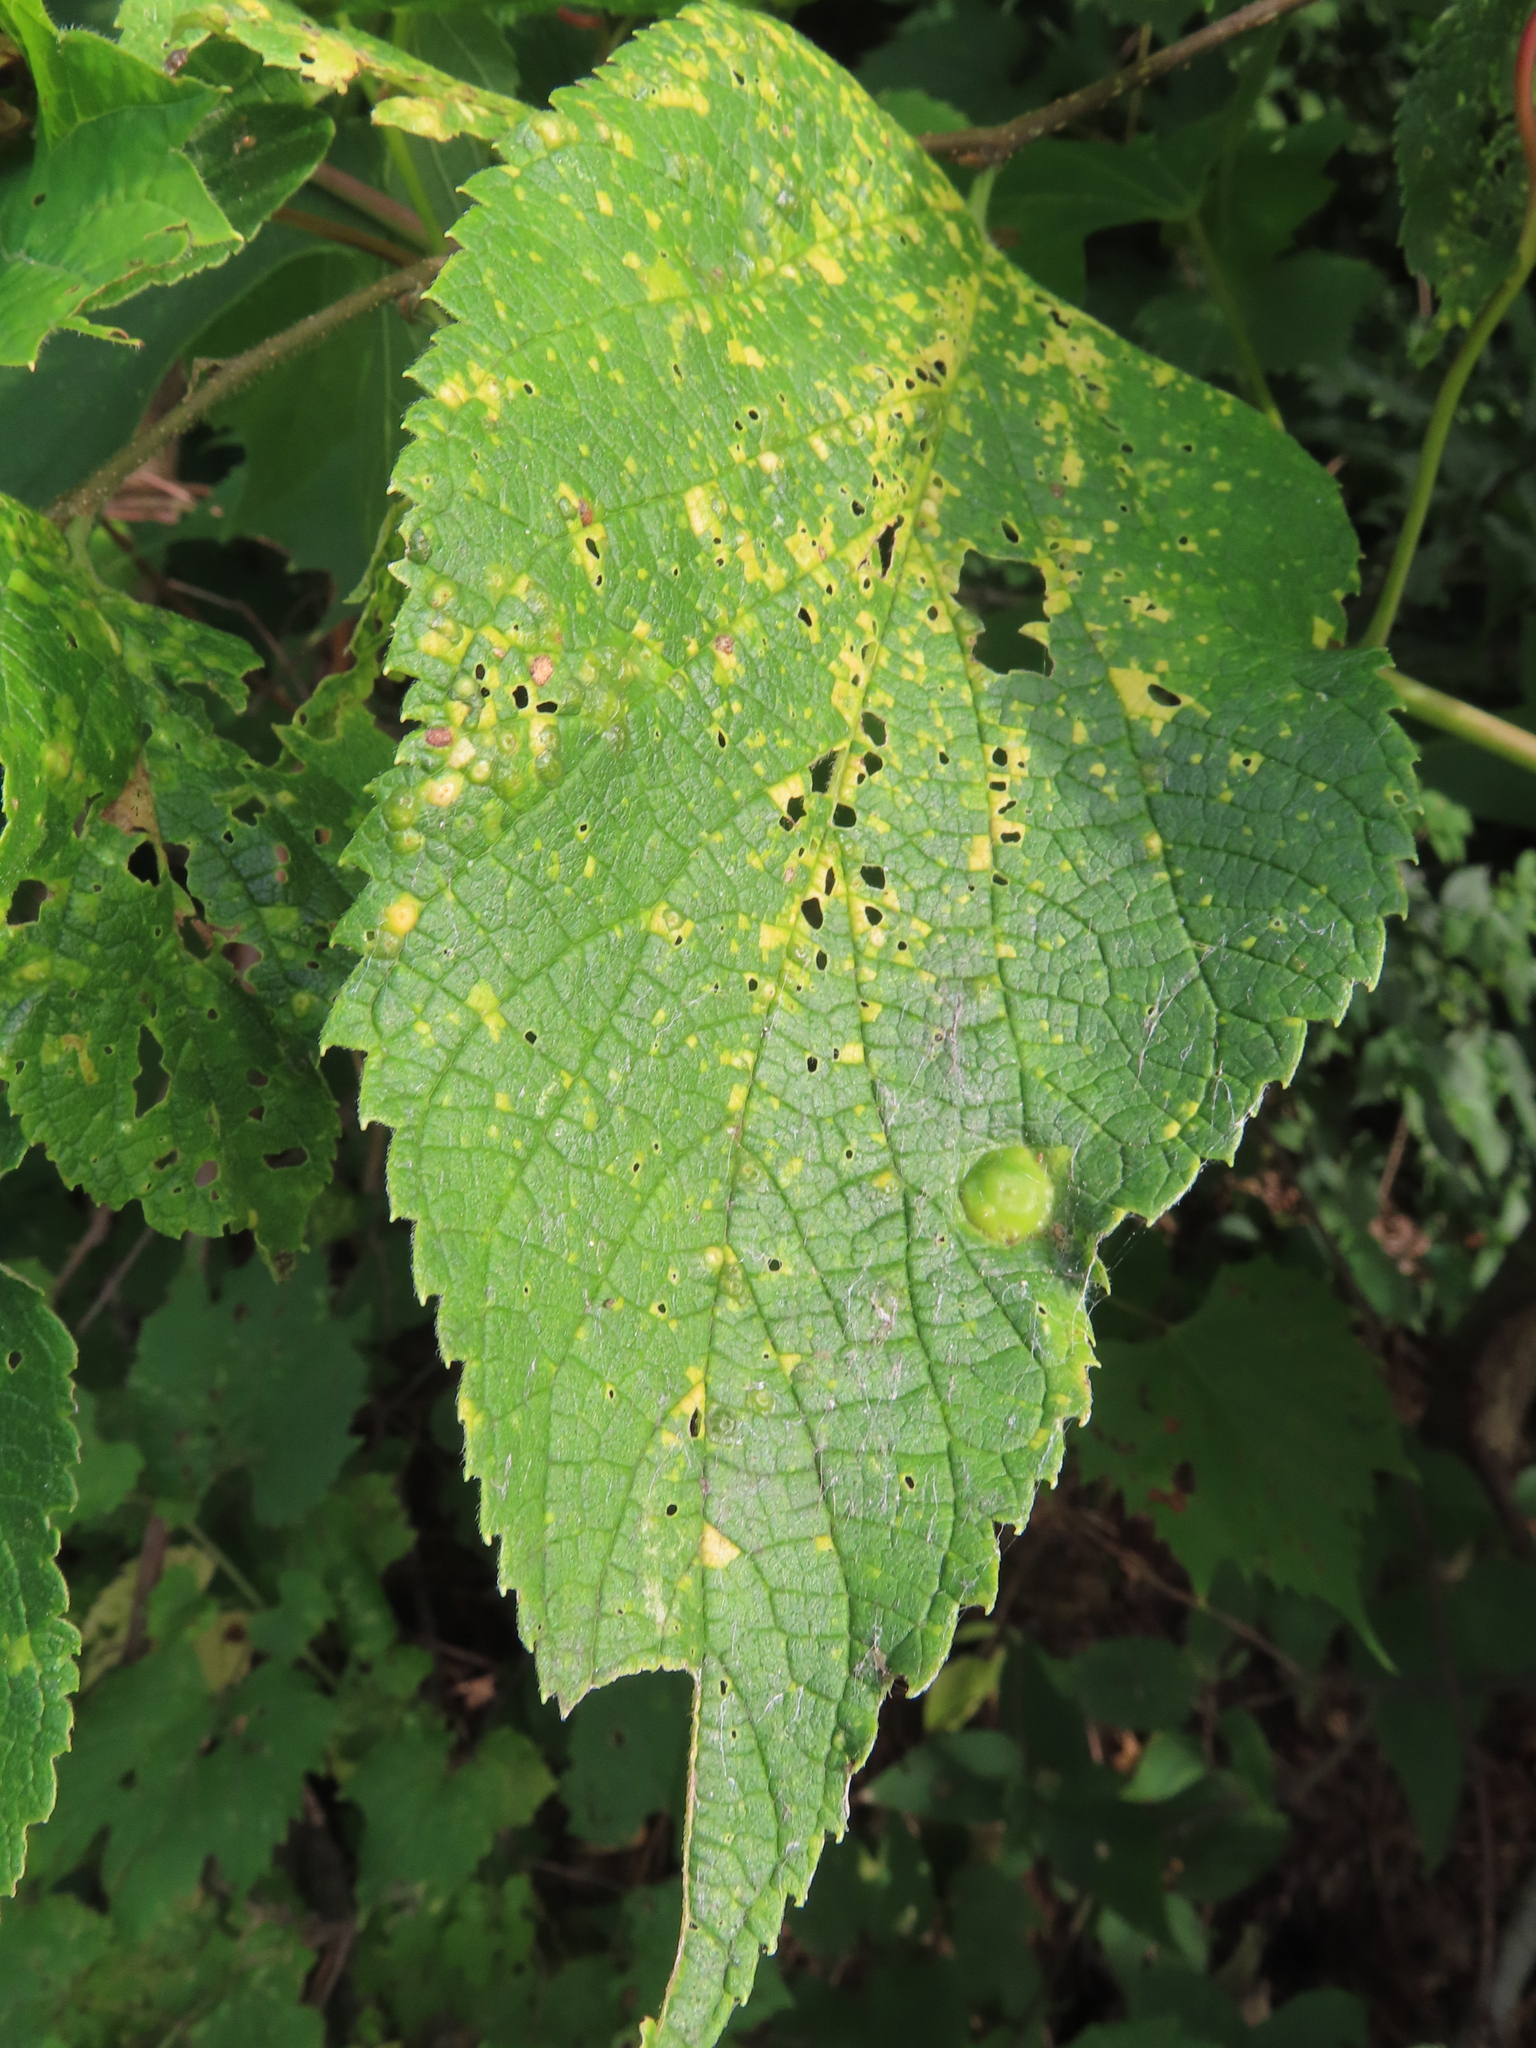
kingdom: Animalia
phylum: Arthropoda
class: Insecta
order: Hemiptera
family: Aphalaridae
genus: Pachypsylla
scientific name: Pachypsylla celtidisumbilicus
